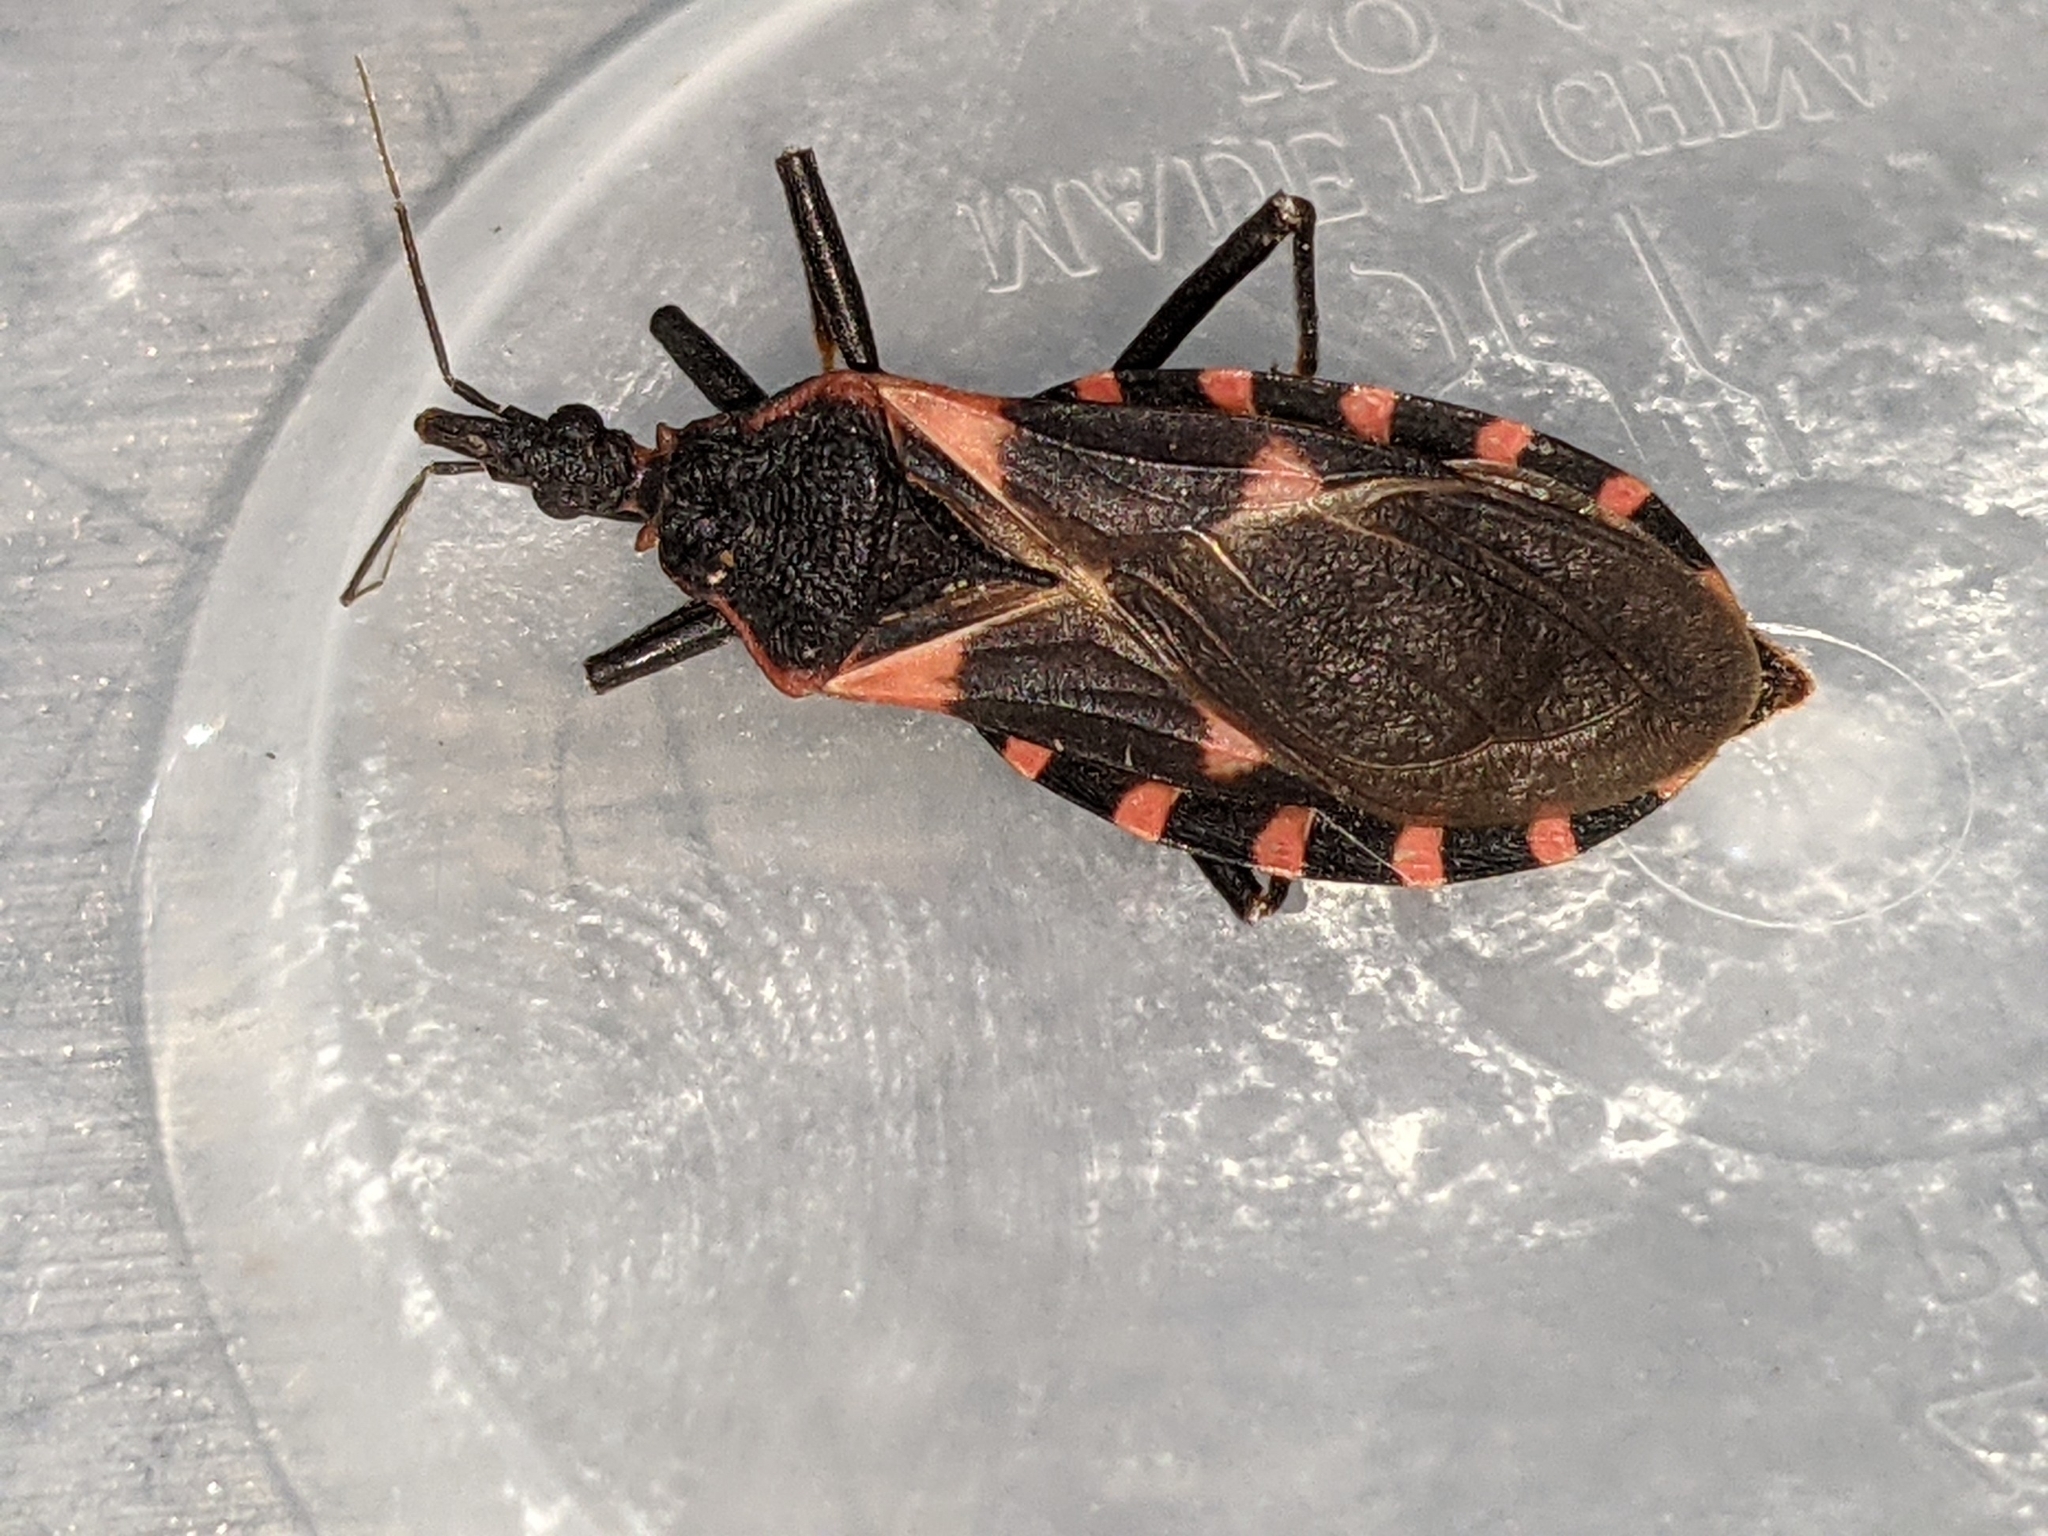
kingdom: Animalia
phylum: Arthropoda
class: Insecta
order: Hemiptera
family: Reduviidae
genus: Triatoma
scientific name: Triatoma sanguisuga
